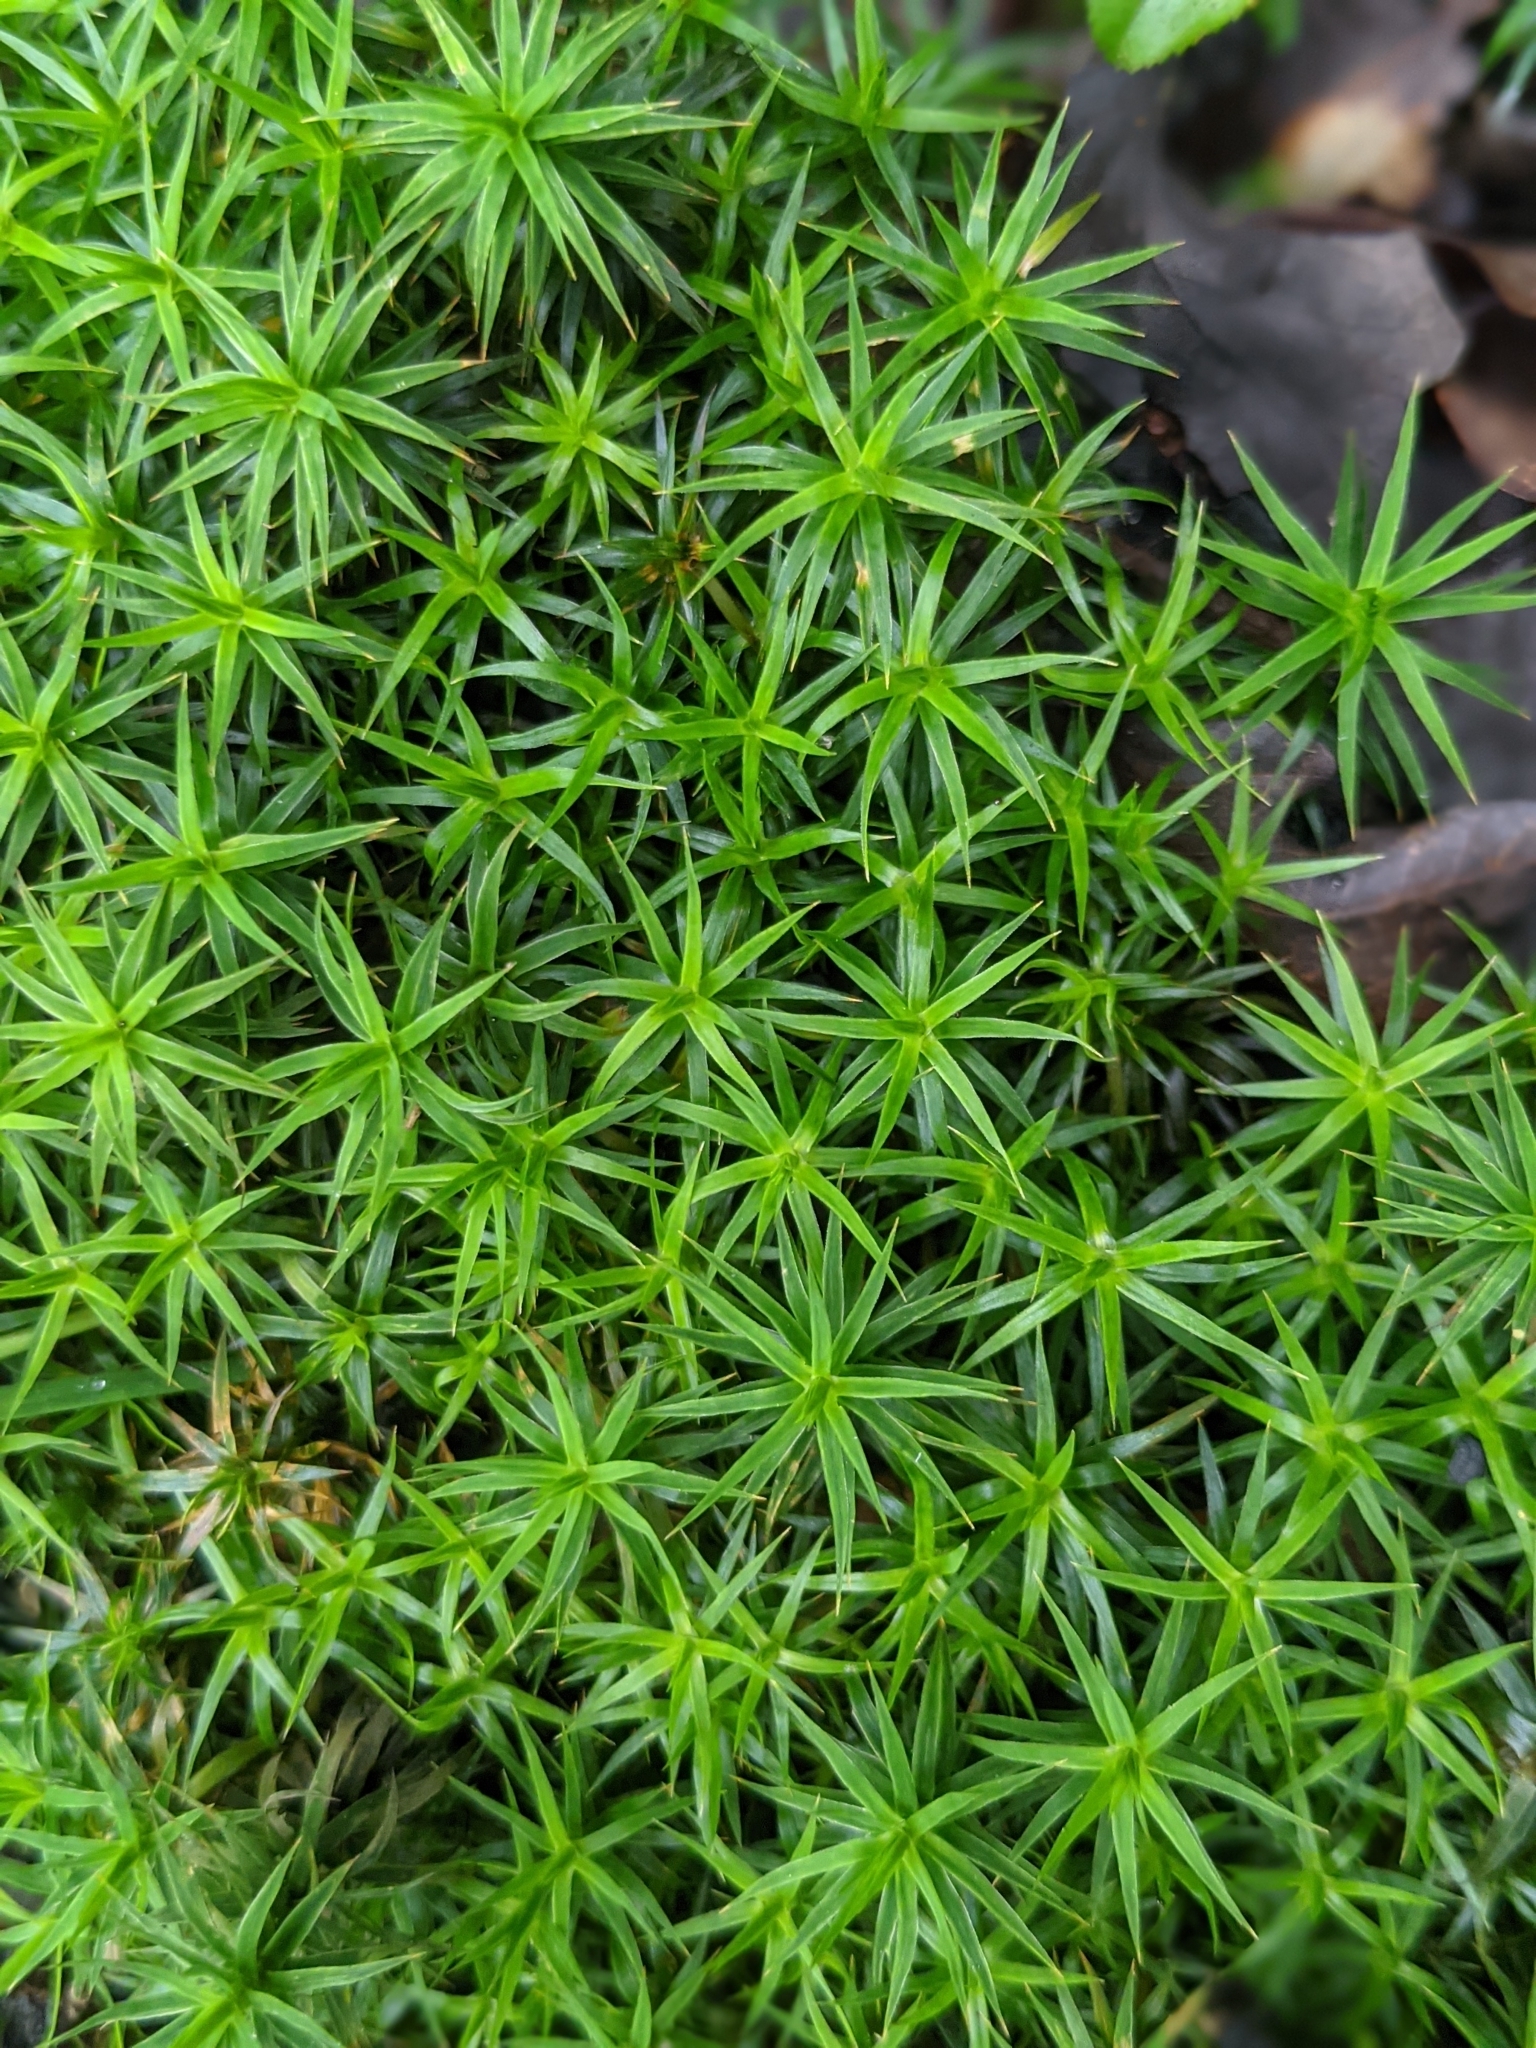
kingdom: Plantae
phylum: Bryophyta
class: Polytrichopsida
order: Polytrichales
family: Polytrichaceae
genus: Polytrichum
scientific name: Polytrichum formosum
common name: Bank haircap moss
